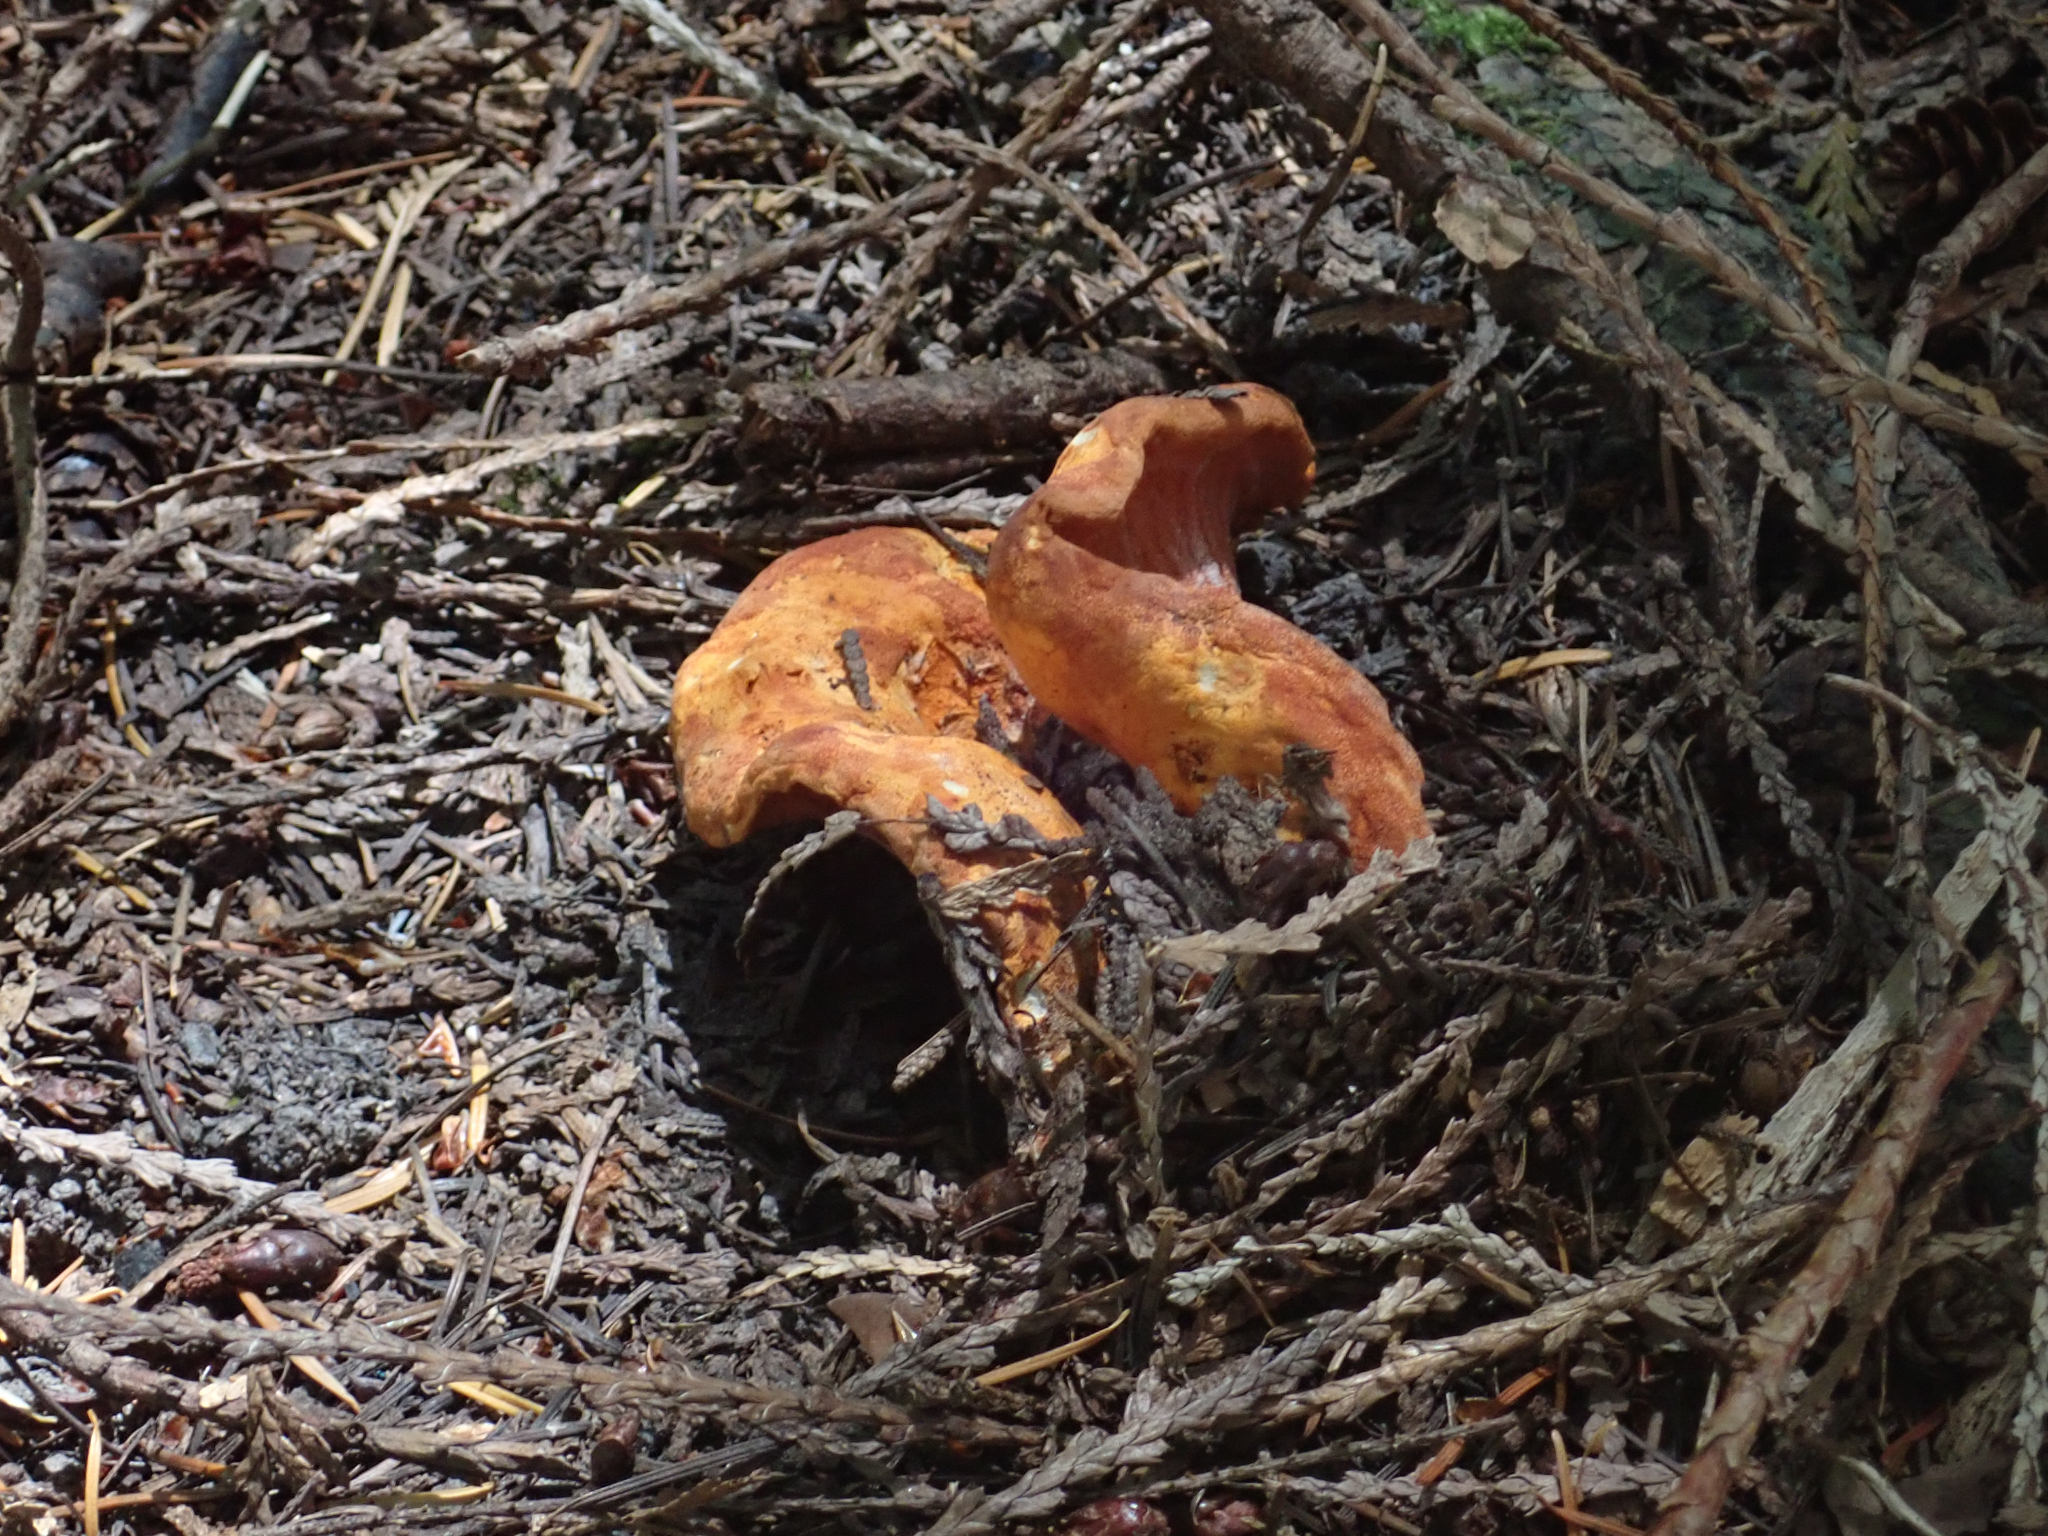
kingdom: Fungi
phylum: Ascomycota
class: Sordariomycetes
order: Hypocreales
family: Hypocreaceae
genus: Hypomyces
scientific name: Hypomyces lactifluorum
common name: Lobster mushroom
